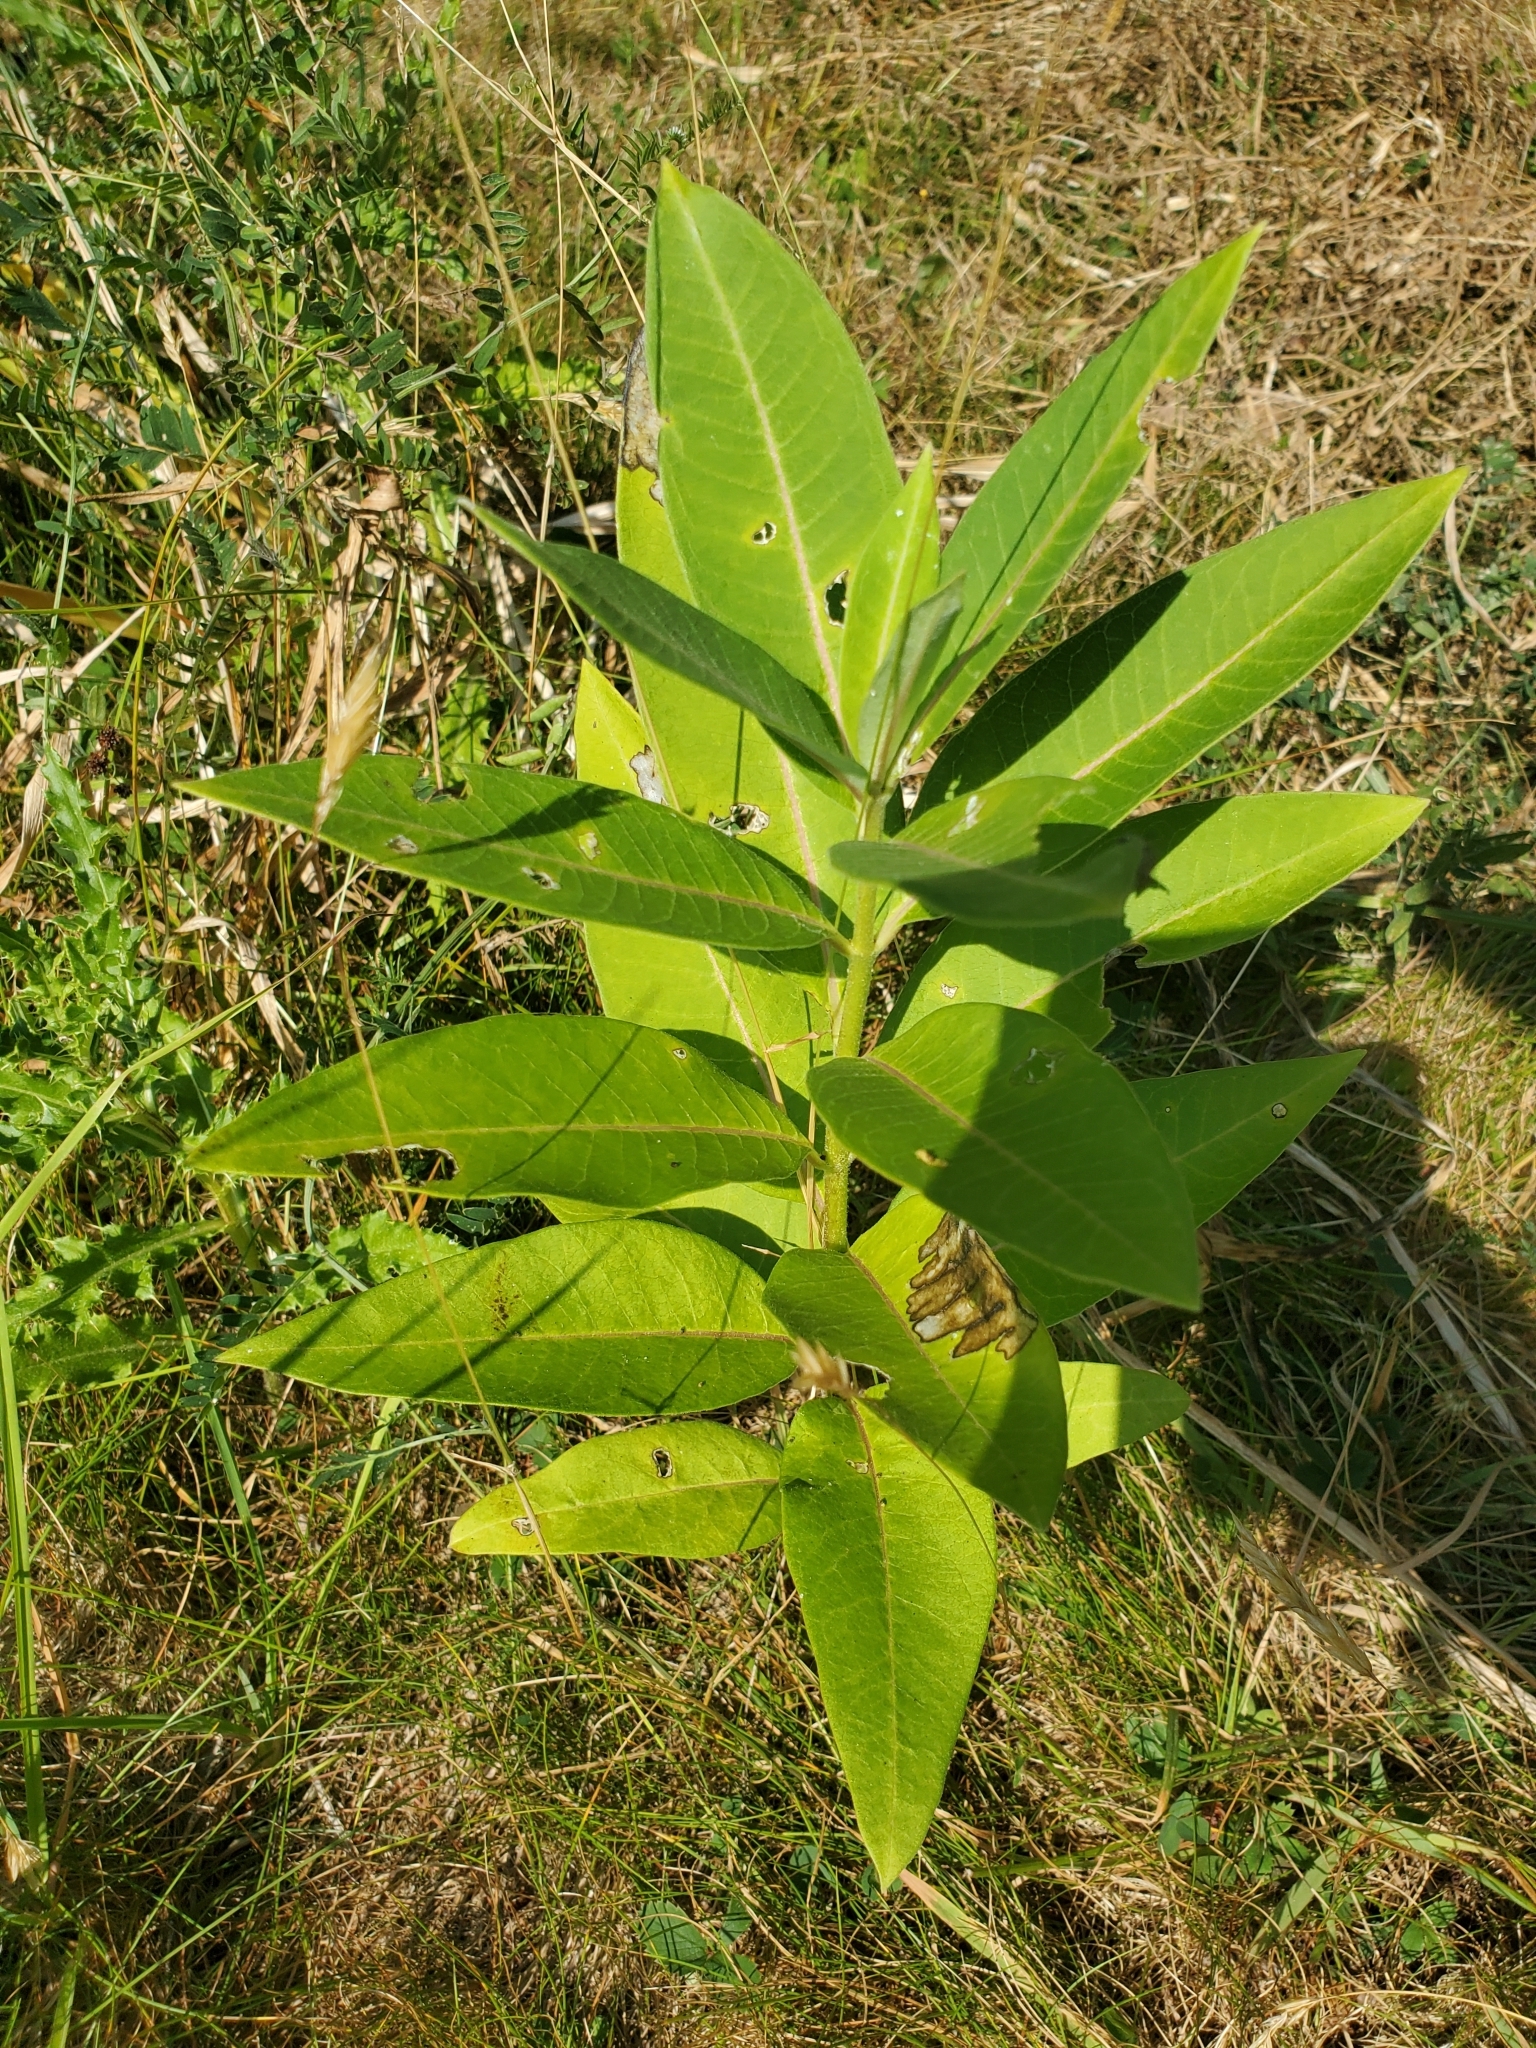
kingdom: Plantae
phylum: Tracheophyta
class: Magnoliopsida
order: Gentianales
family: Apocynaceae
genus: Asclepias
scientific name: Asclepias syriaca
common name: Common milkweed
